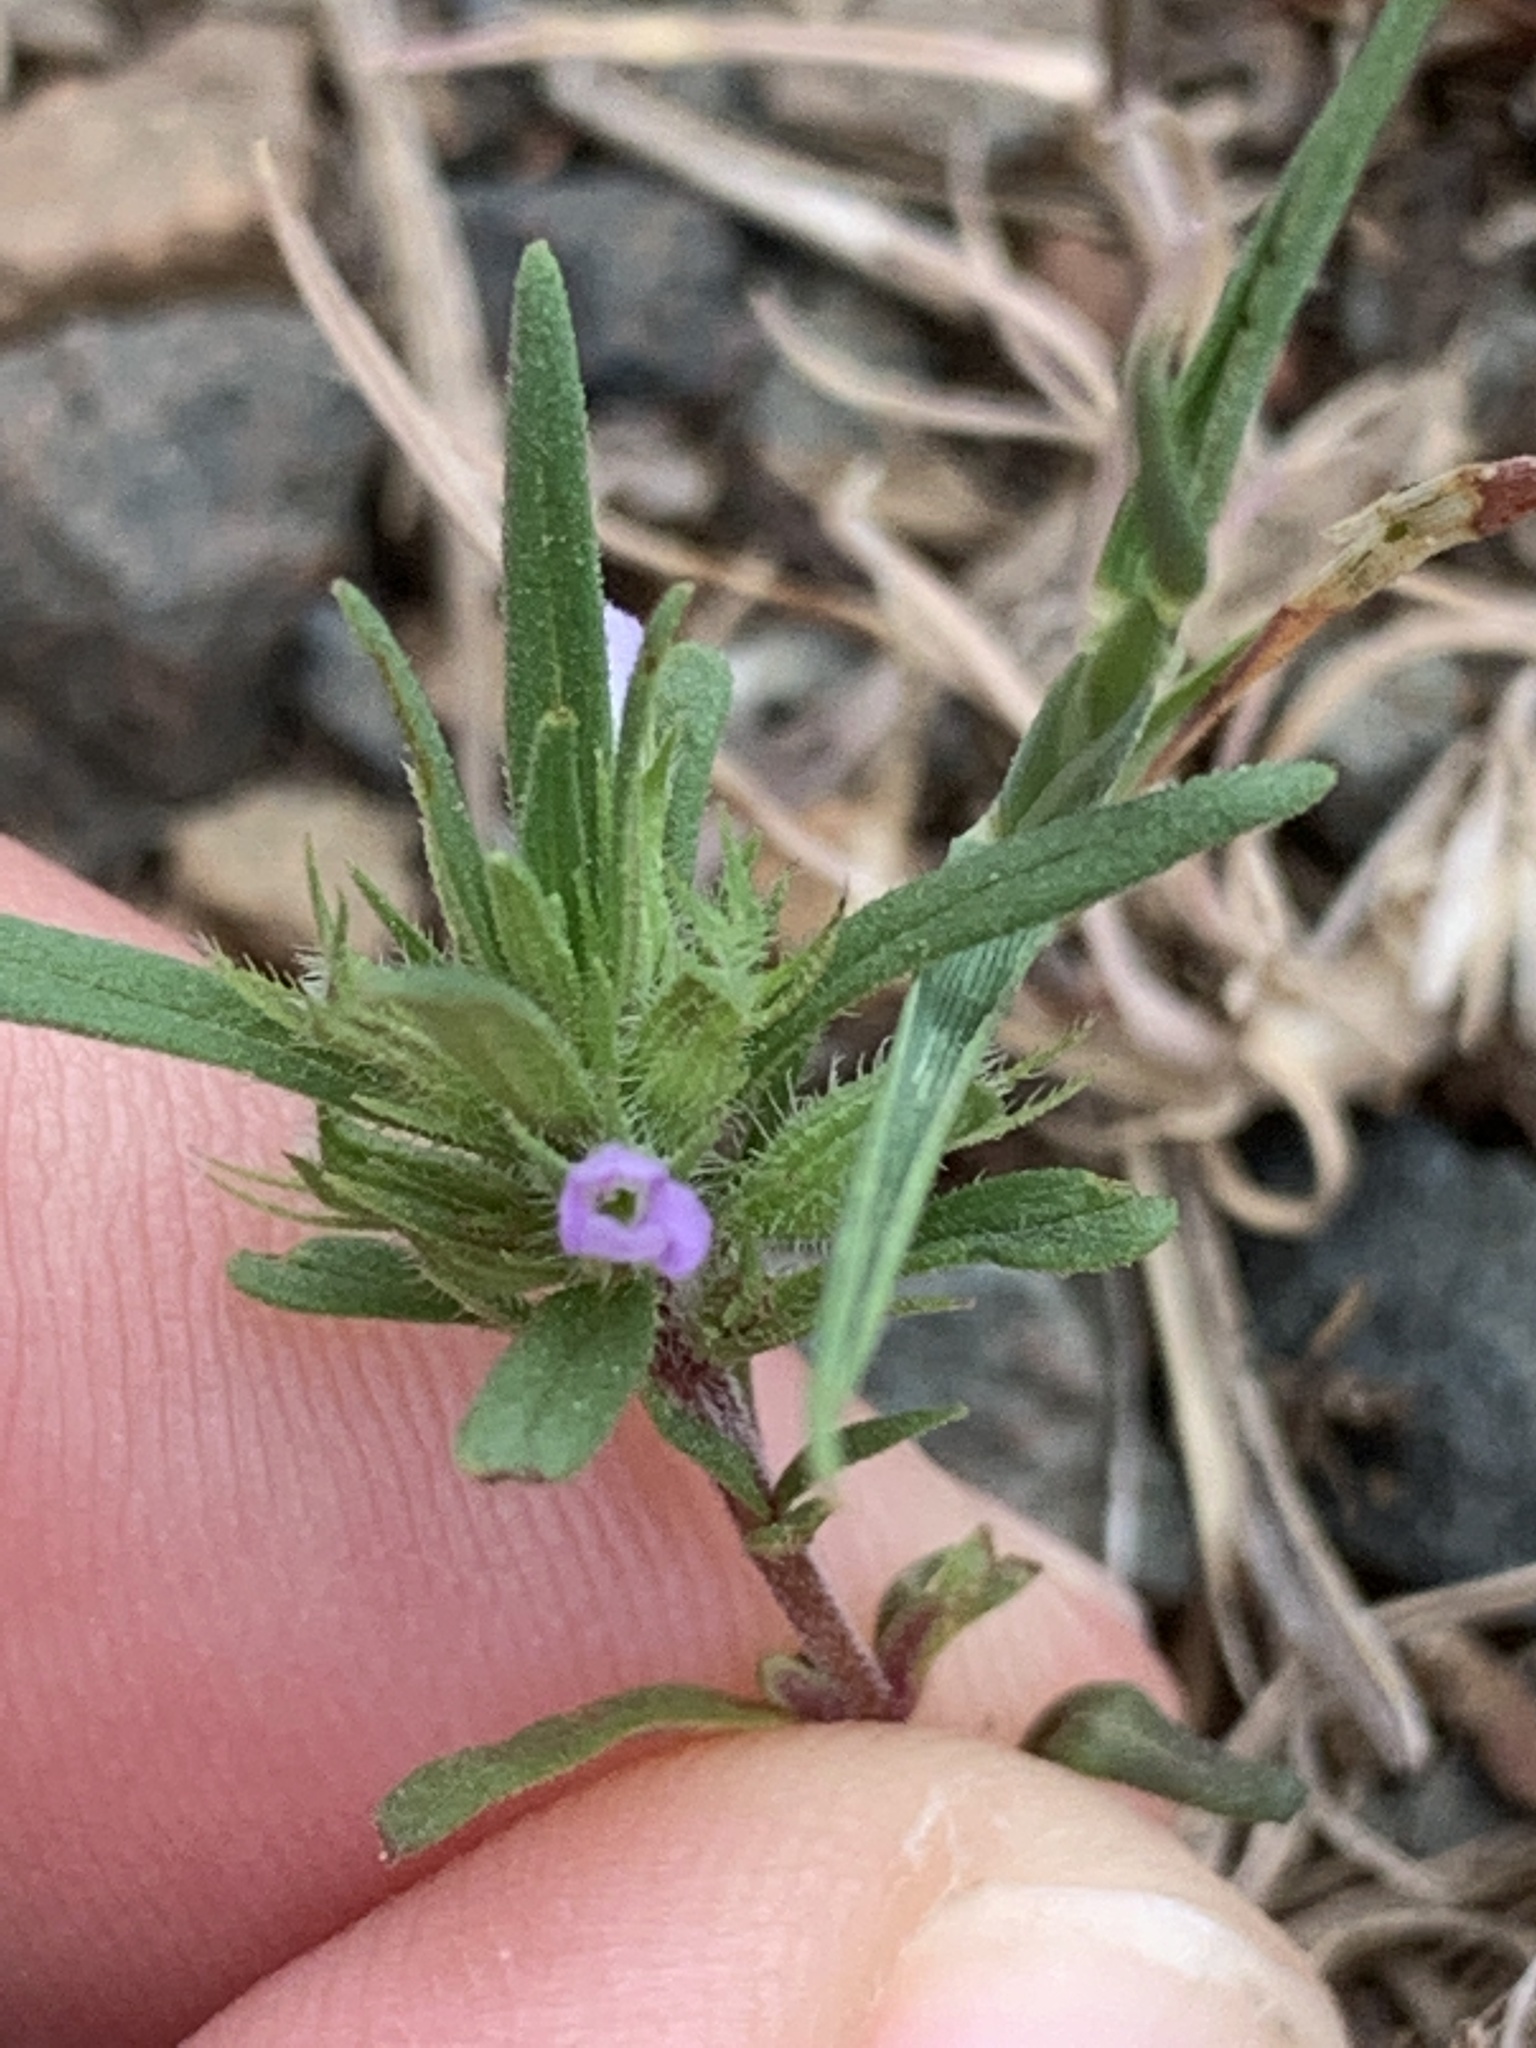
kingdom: Plantae
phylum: Tracheophyta
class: Magnoliopsida
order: Lamiales
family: Lamiaceae
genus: Hedeoma
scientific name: Hedeoma hispida
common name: Mock pennyroyal
